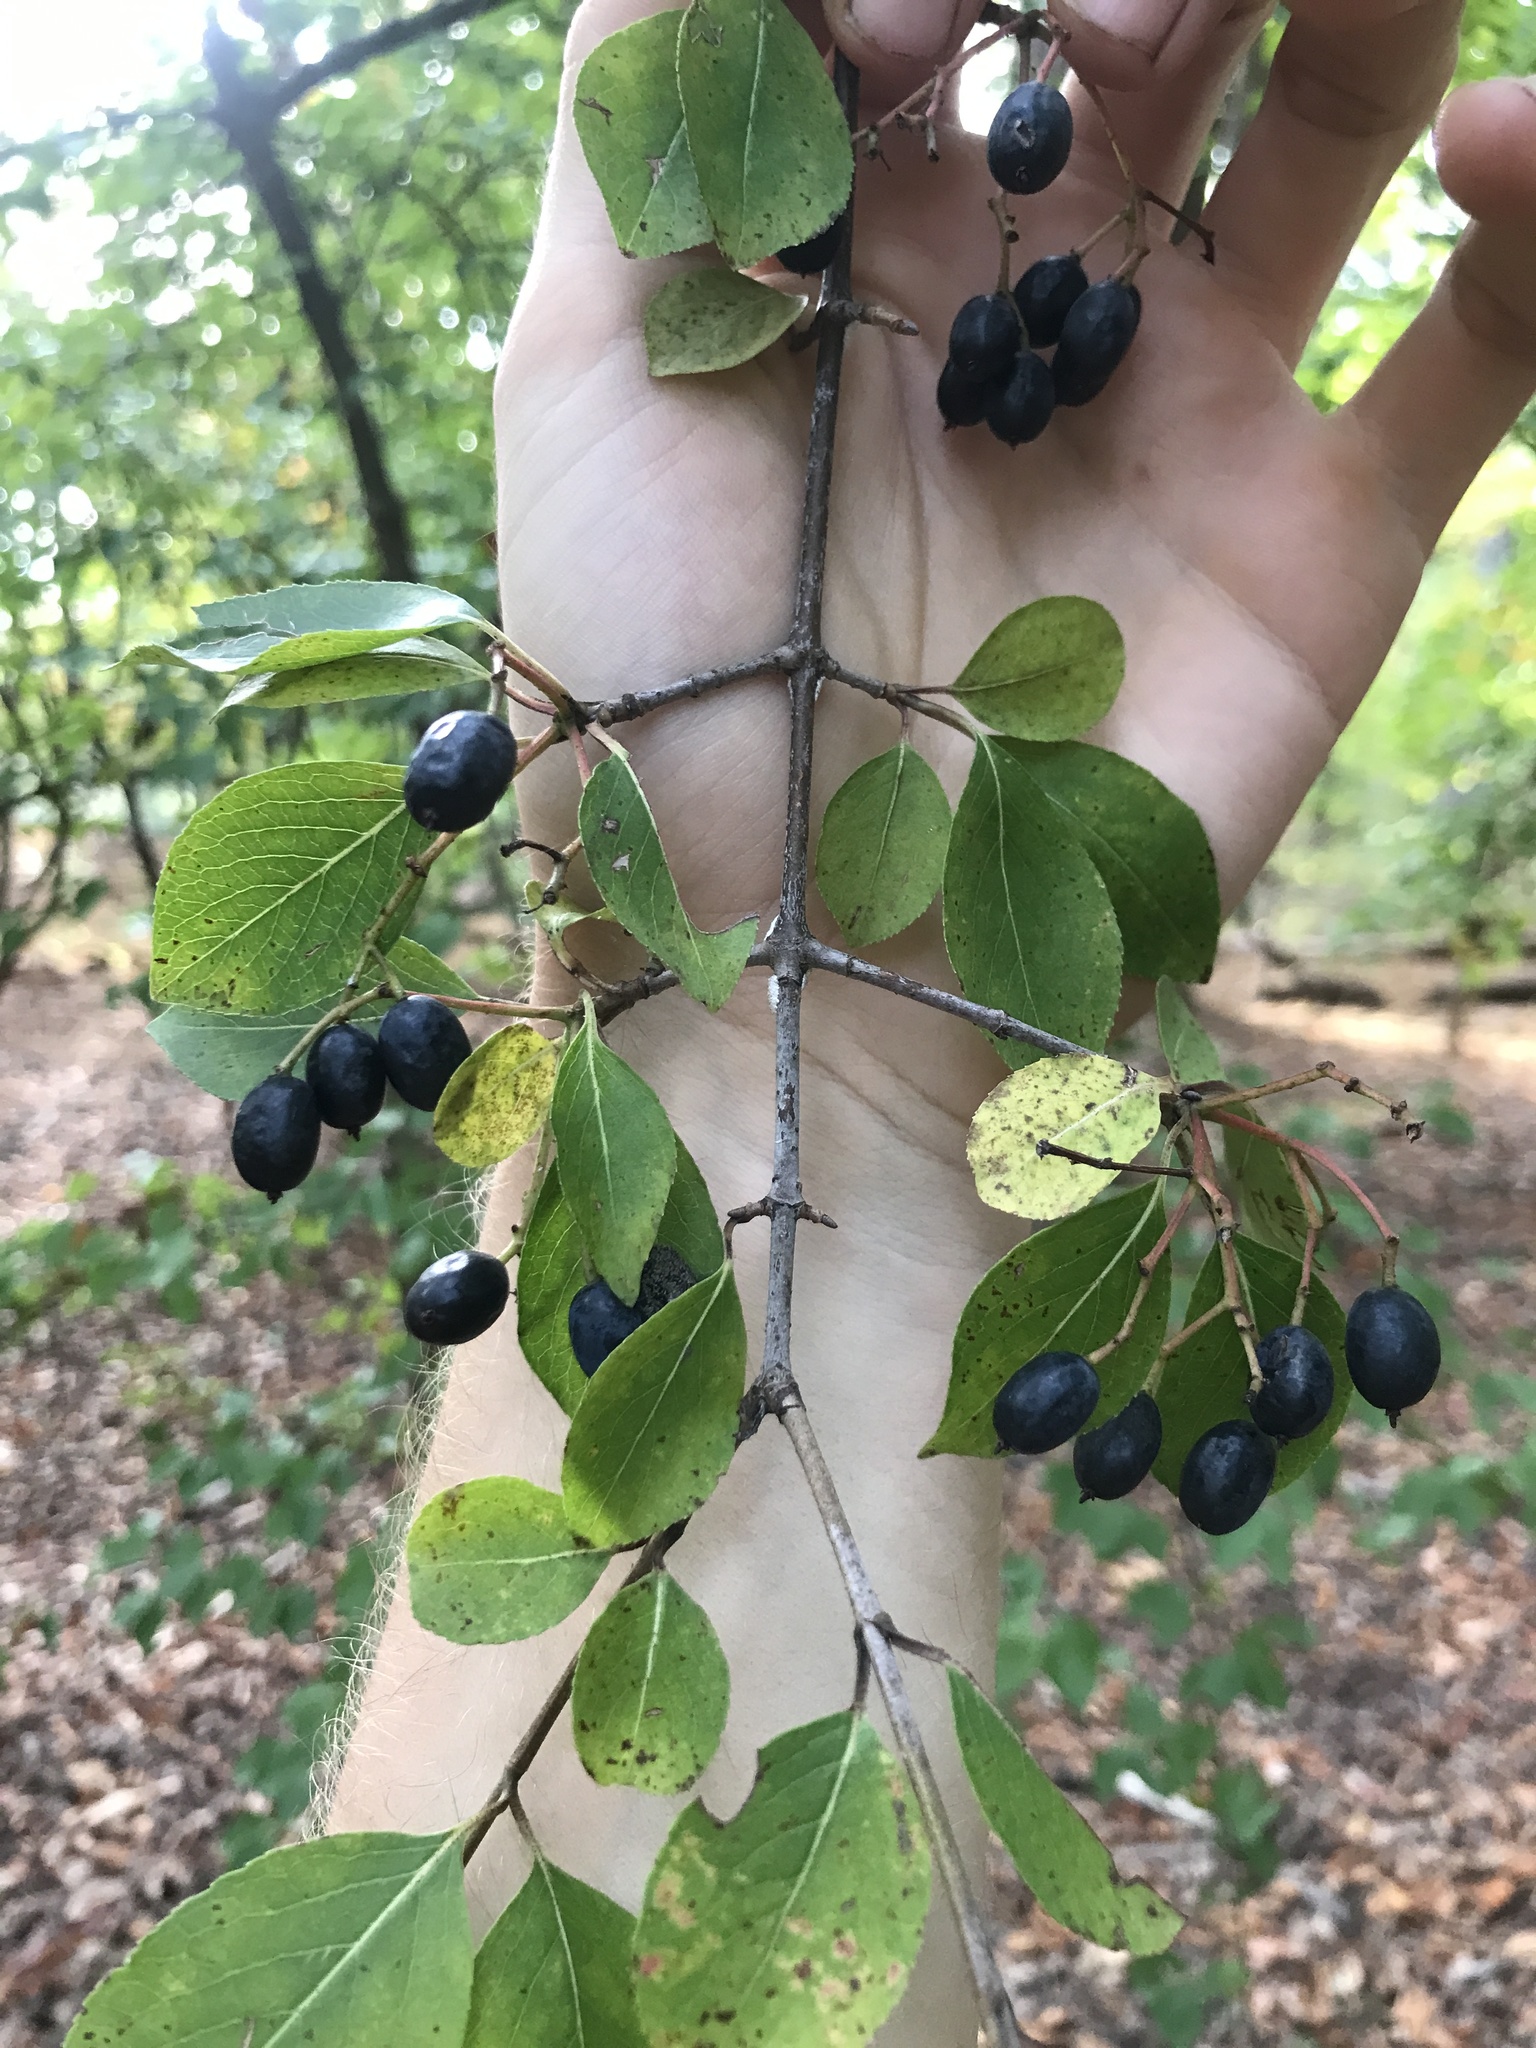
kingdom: Plantae
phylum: Tracheophyta
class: Magnoliopsida
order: Dipsacales
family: Viburnaceae
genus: Viburnum
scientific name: Viburnum prunifolium
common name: Black haw
